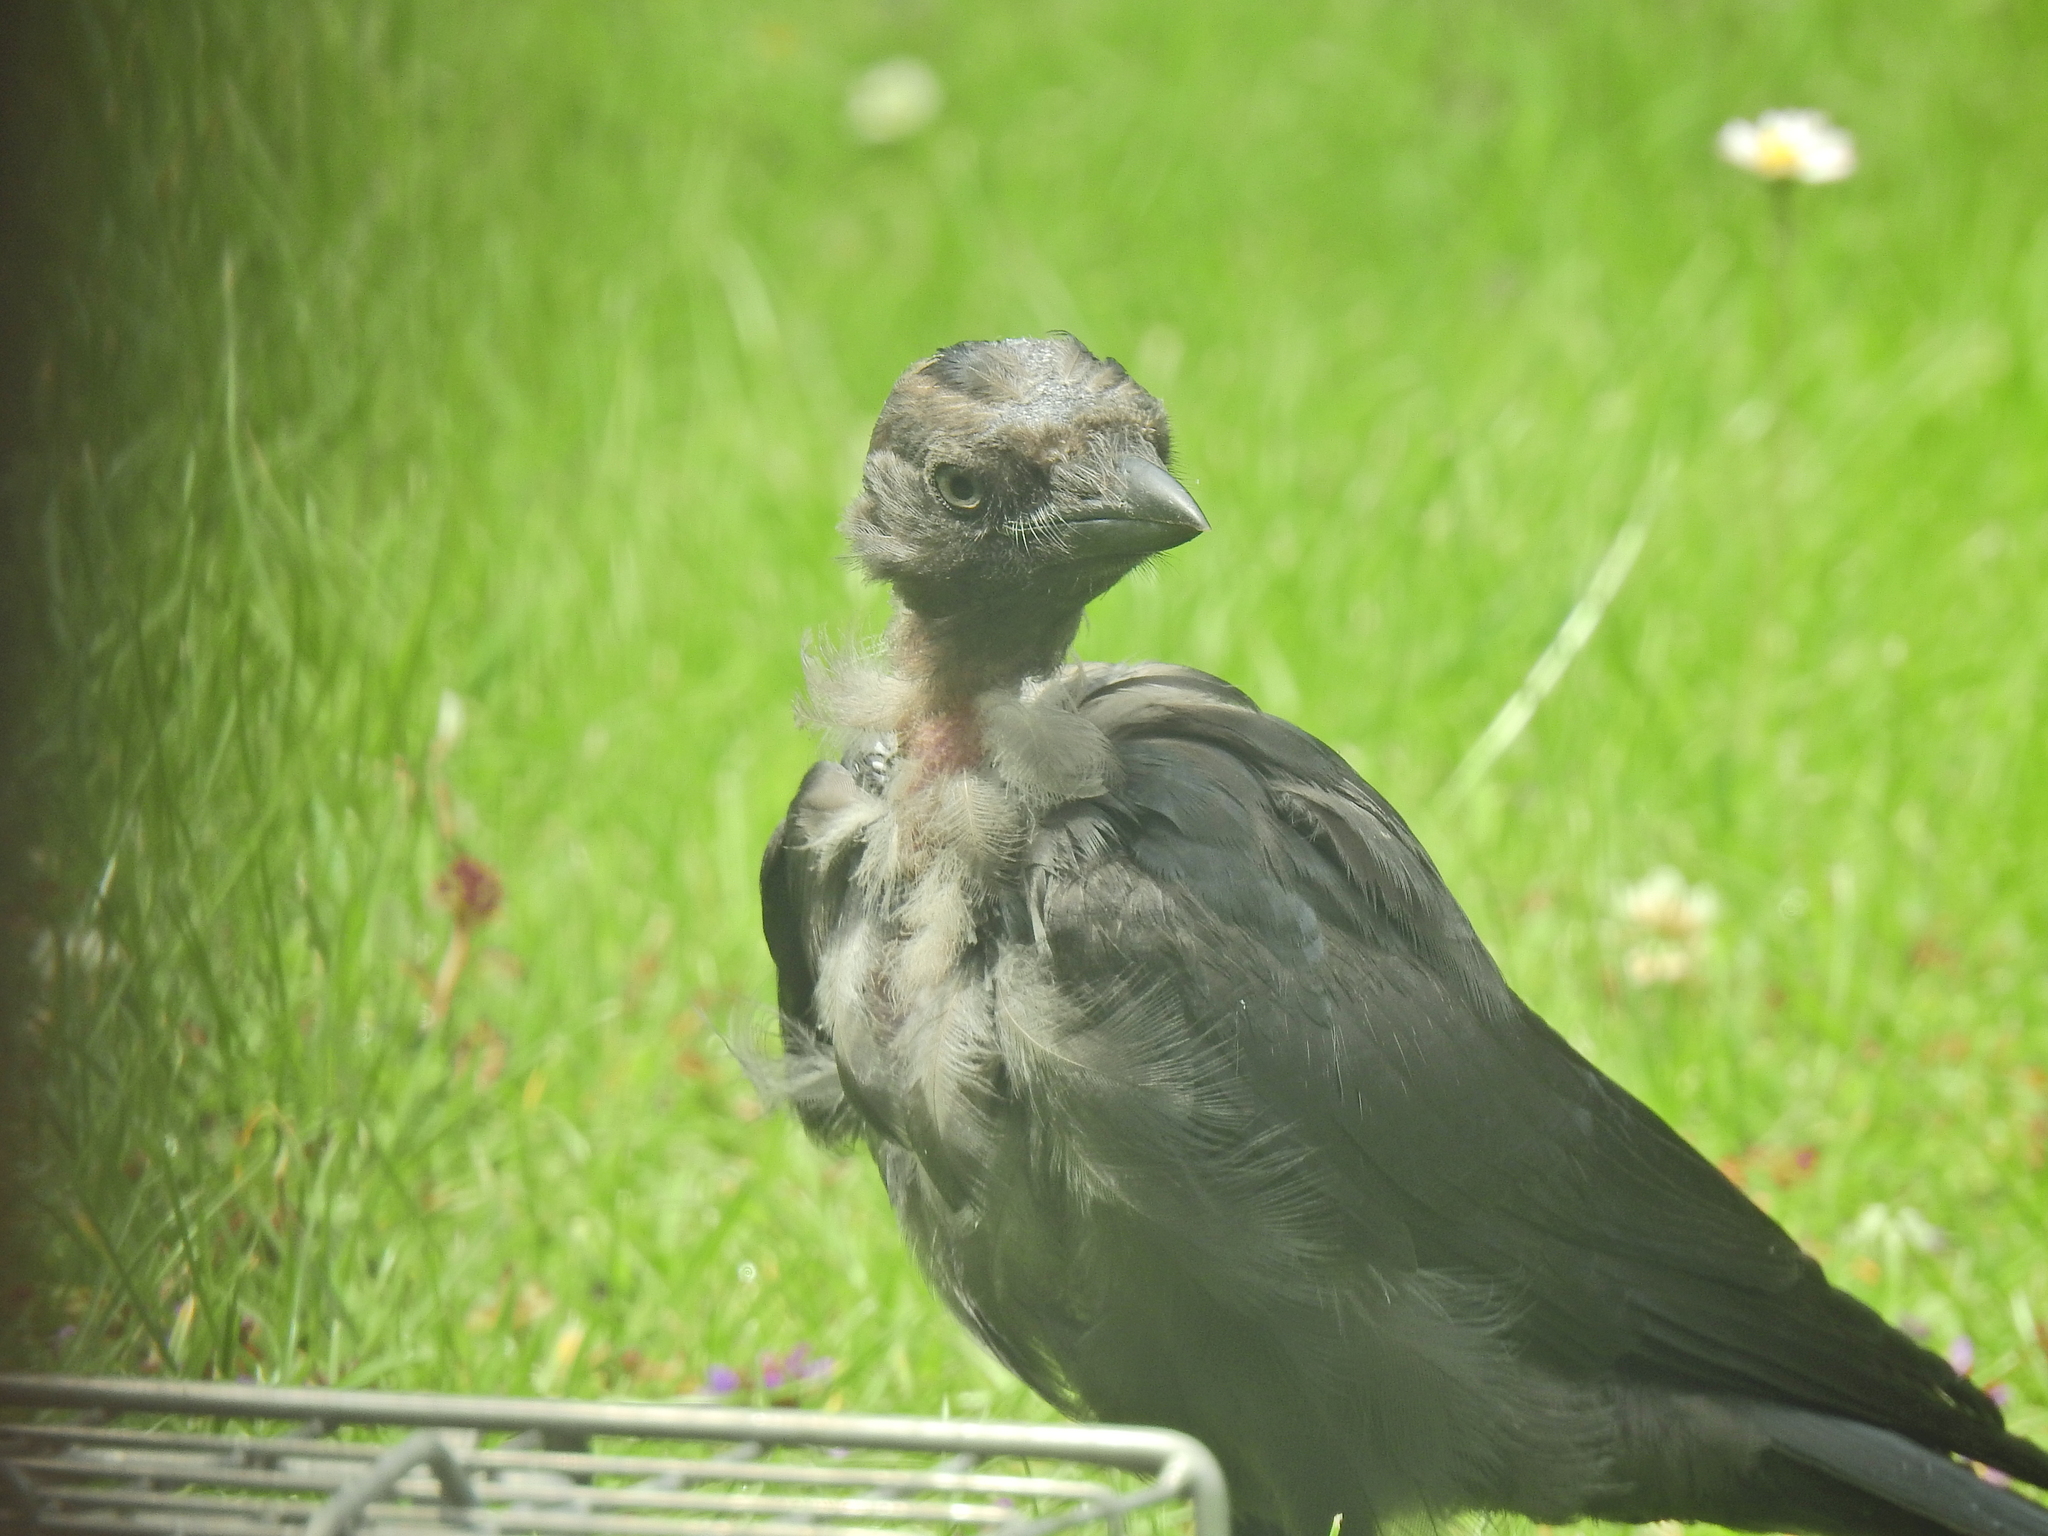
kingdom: Animalia
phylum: Chordata
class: Aves
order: Passeriformes
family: Corvidae
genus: Coloeus
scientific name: Coloeus monedula
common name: Western jackdaw
